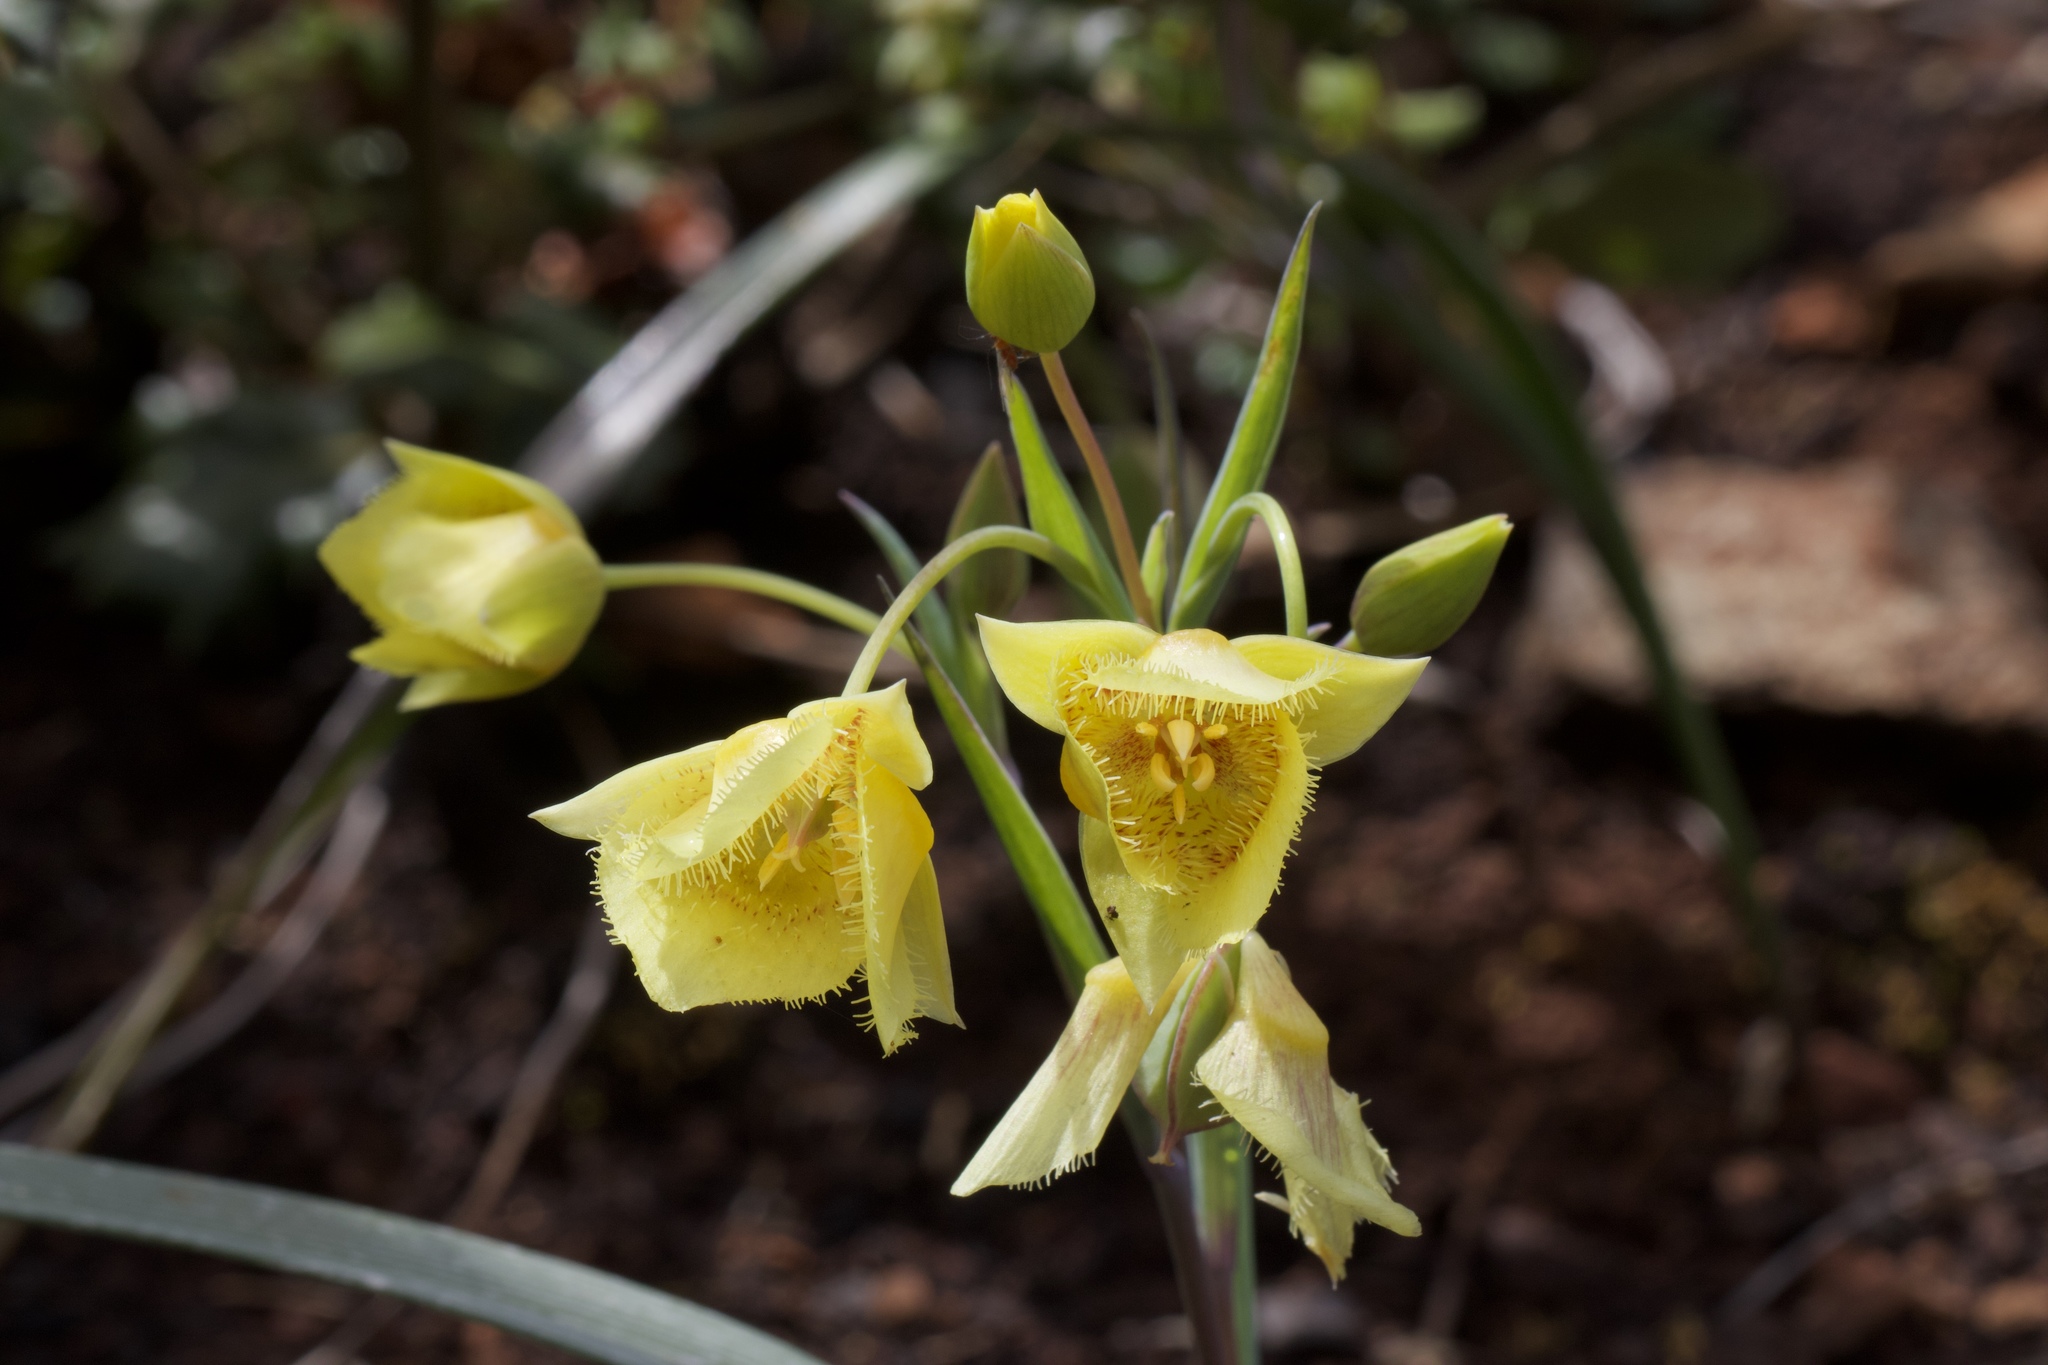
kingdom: Plantae
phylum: Tracheophyta
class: Liliopsida
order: Liliales
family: Liliaceae
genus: Calochortus
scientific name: Calochortus
